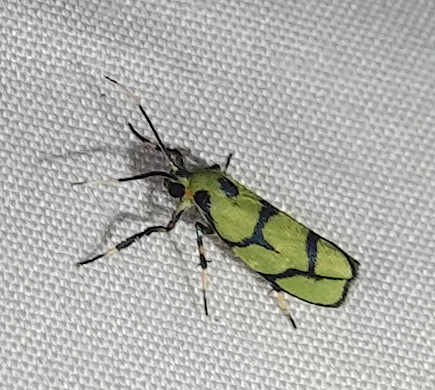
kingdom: Animalia
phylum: Arthropoda
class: Insecta
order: Lepidoptera
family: Erebidae
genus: Cisthene
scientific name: Cisthene citrina
